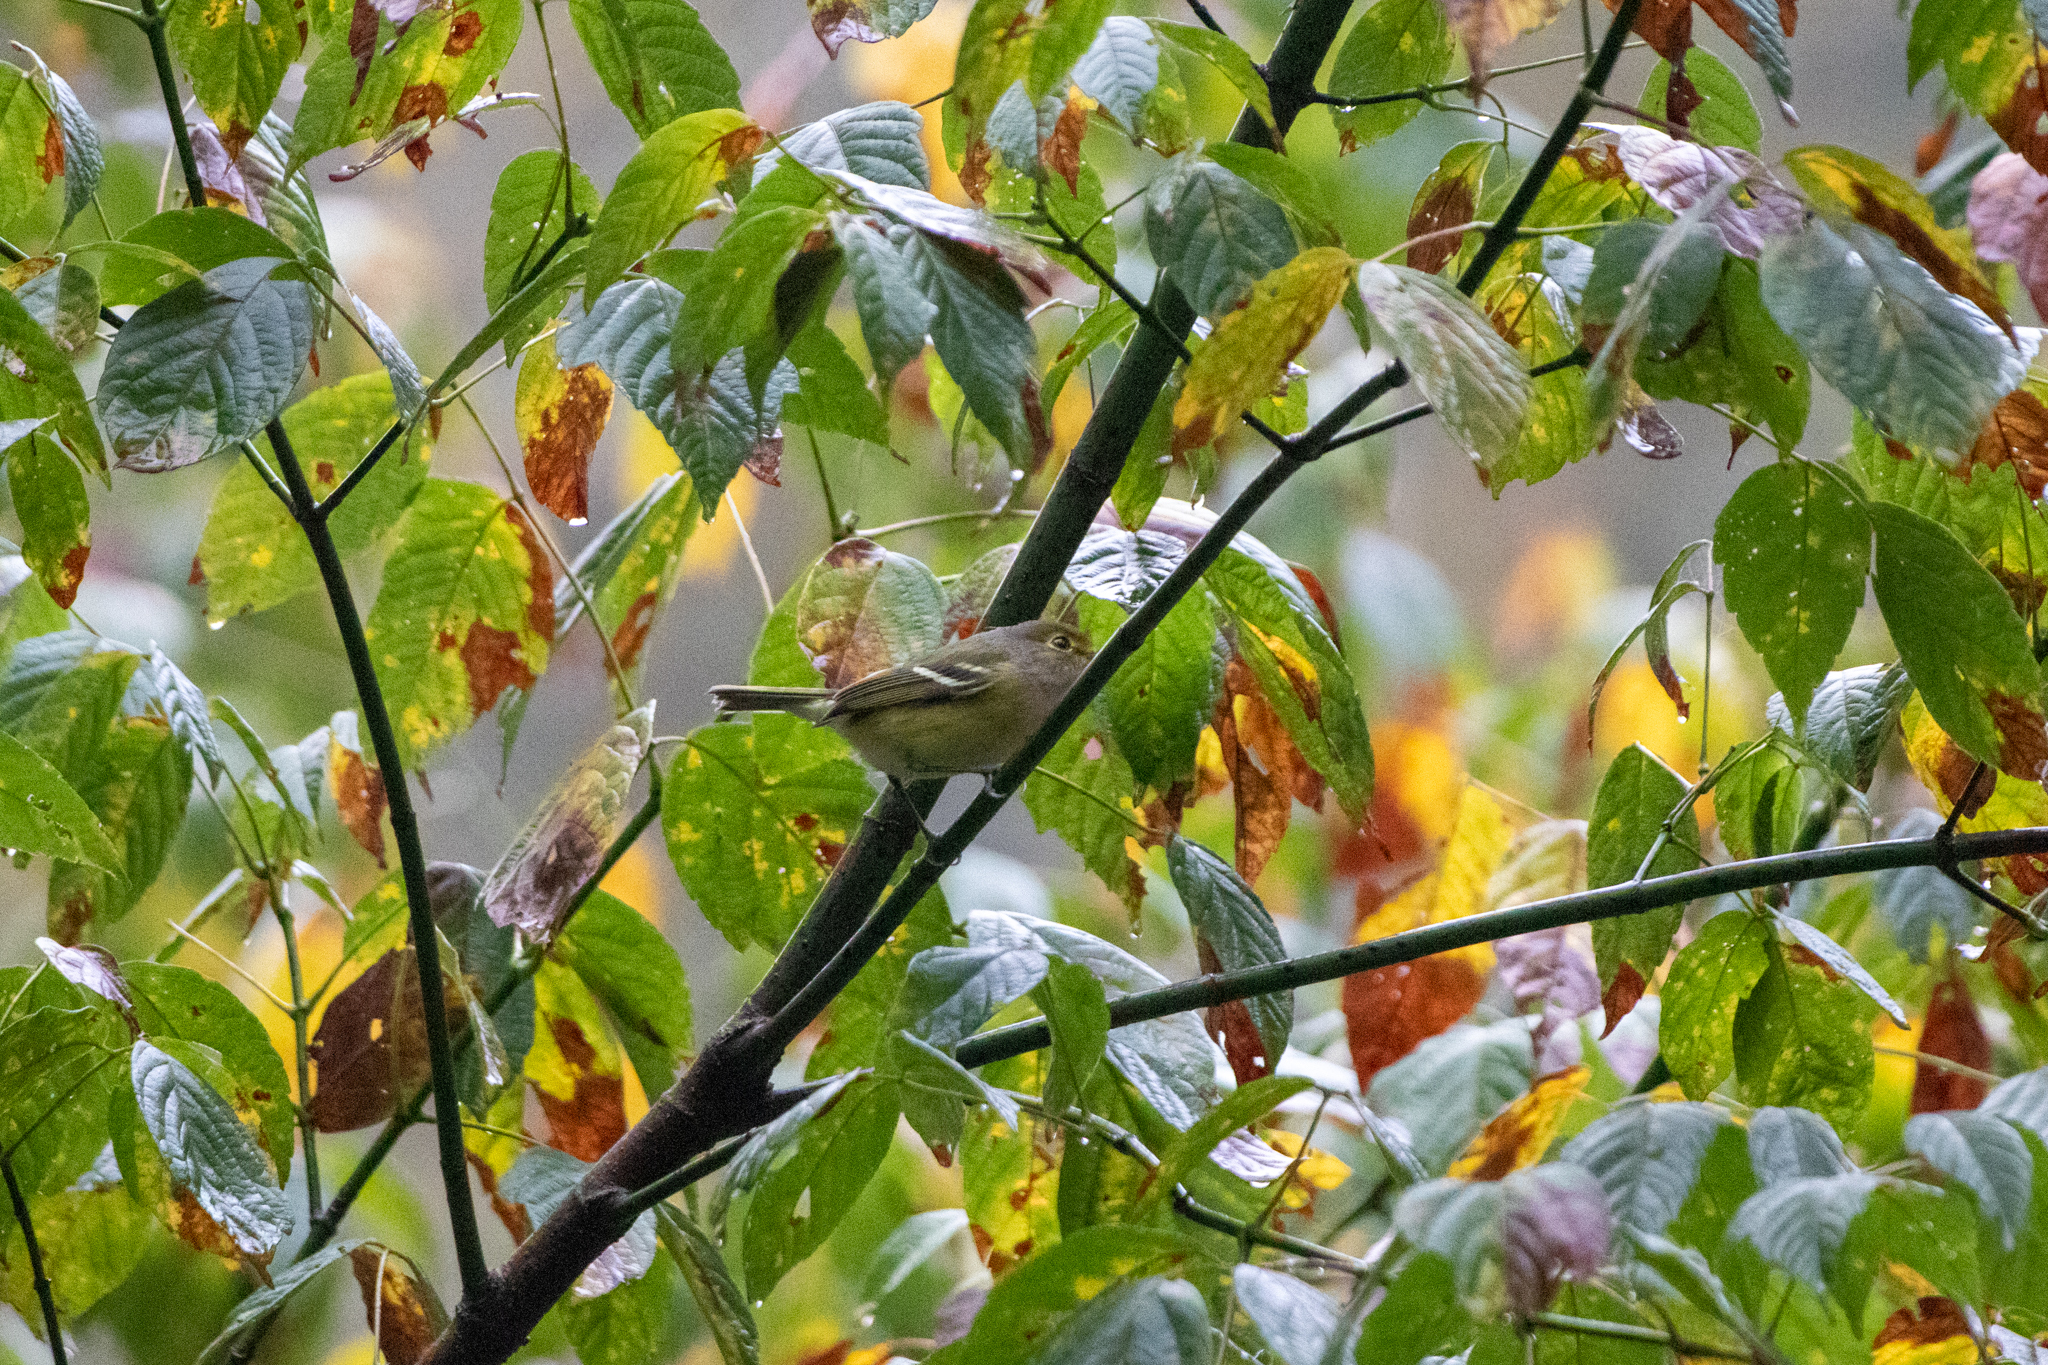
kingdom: Animalia
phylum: Chordata
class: Aves
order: Passeriformes
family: Vireonidae
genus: Vireo
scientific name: Vireo griseus
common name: White-eyed vireo
